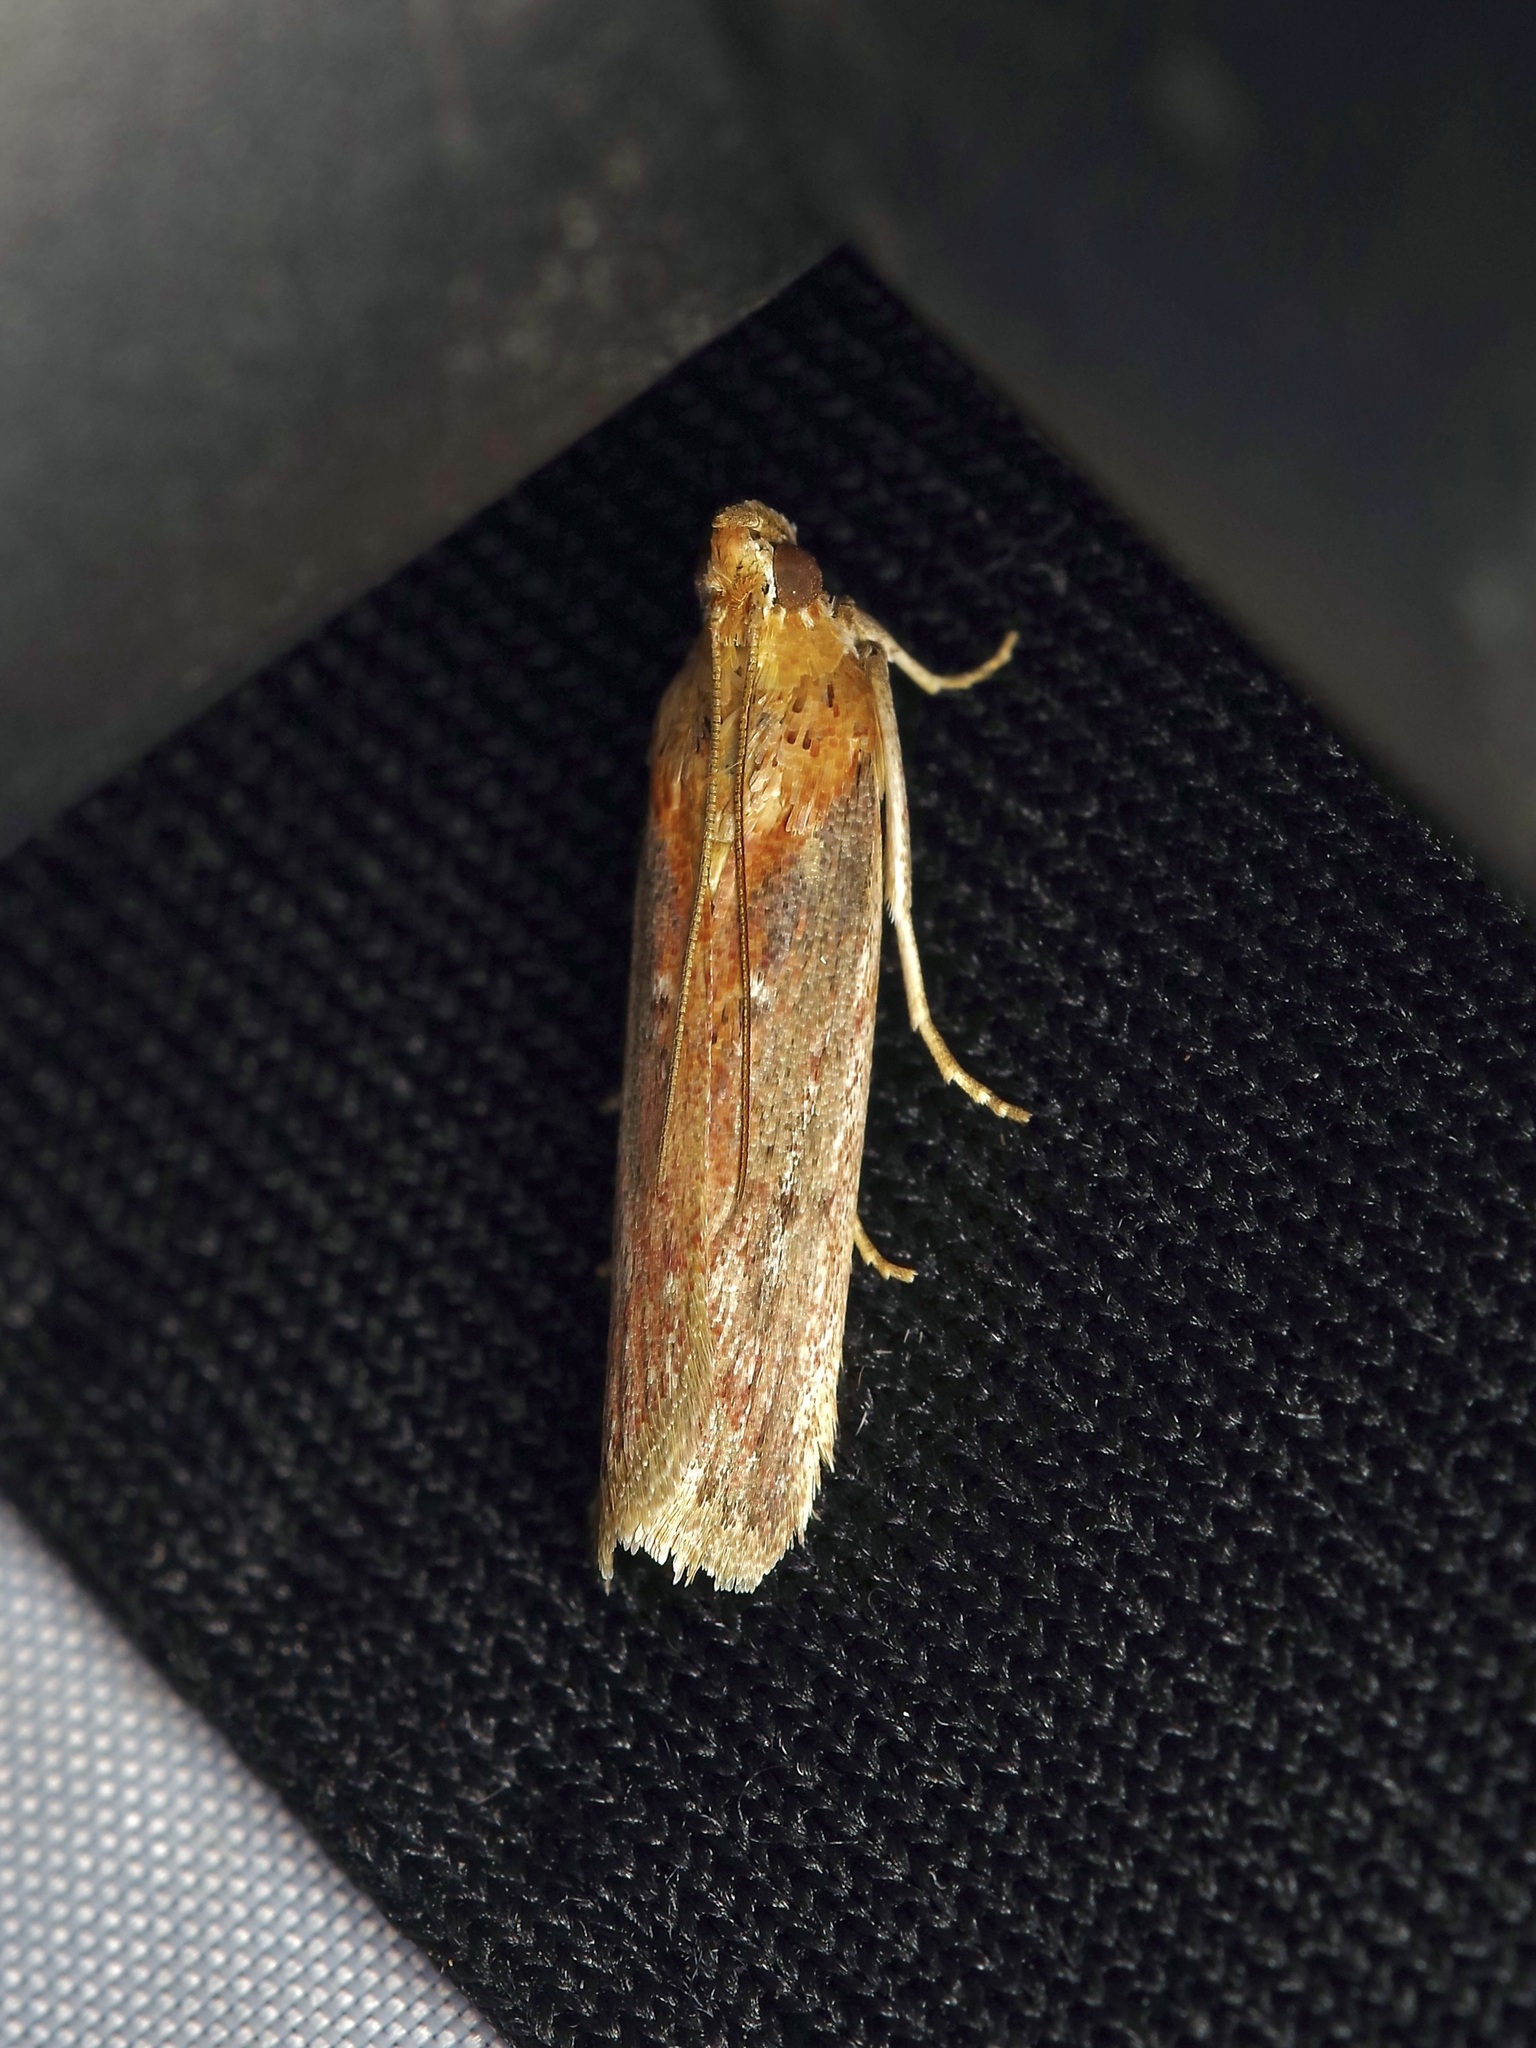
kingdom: Animalia
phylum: Arthropoda
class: Insecta
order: Lepidoptera
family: Pyralidae
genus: Elasmopalpus
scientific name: Elasmopalpus lignosella
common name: Lesser cornstalk borer
